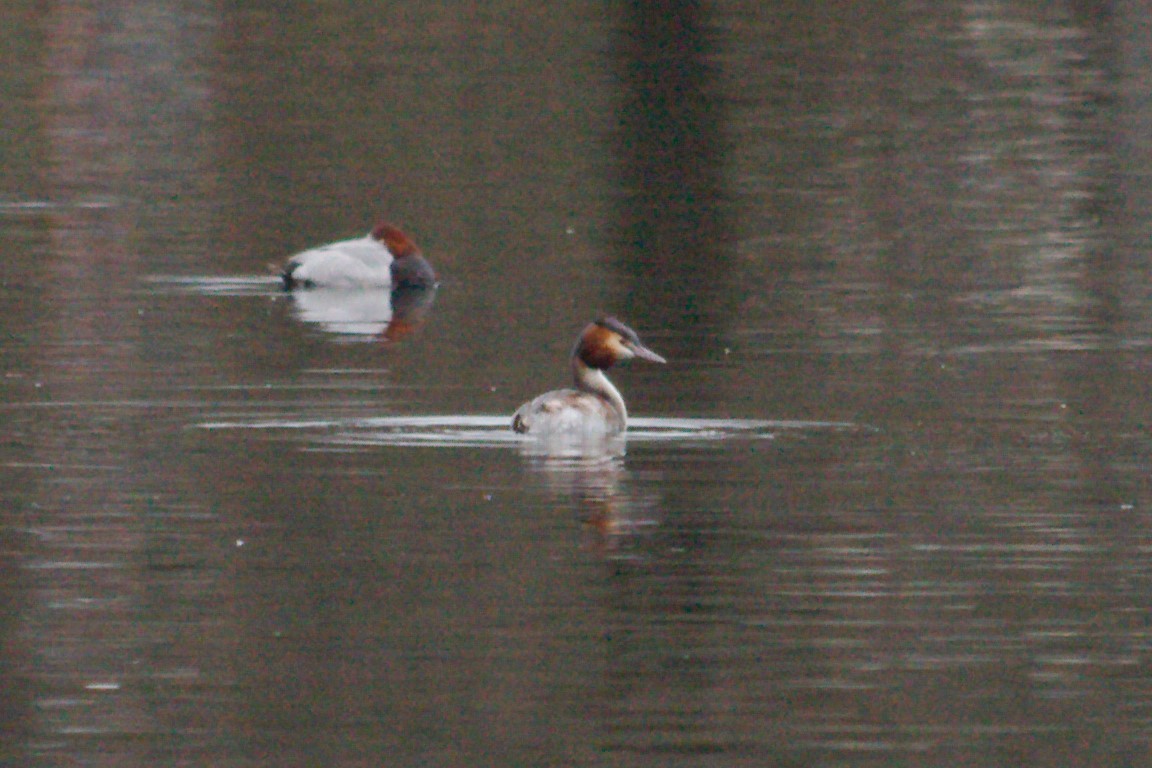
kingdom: Animalia
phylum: Chordata
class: Aves
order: Podicipediformes
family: Podicipedidae
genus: Podiceps
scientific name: Podiceps cristatus
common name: Great crested grebe
